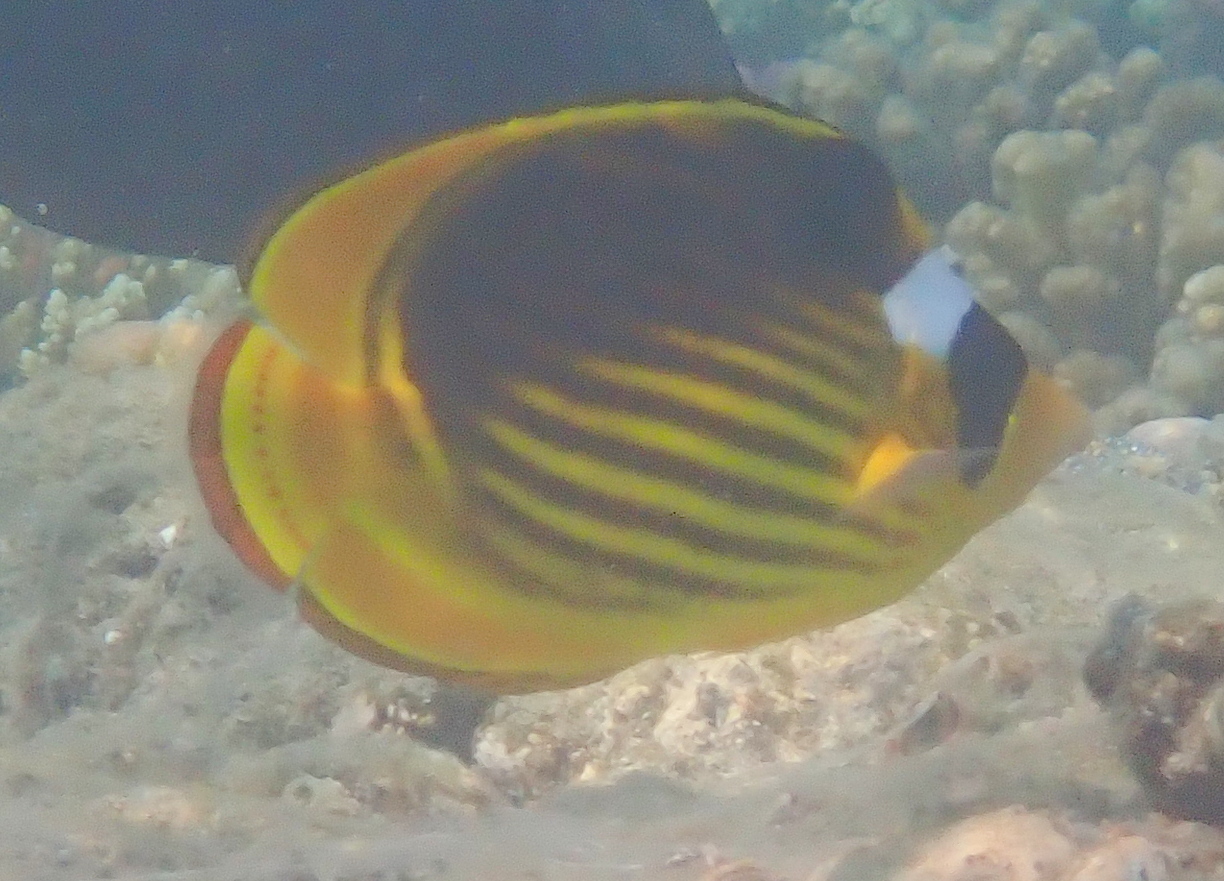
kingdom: Animalia
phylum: Chordata
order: Perciformes
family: Chaetodontidae
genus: Chaetodon
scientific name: Chaetodon fasciatus
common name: Diagonal butterflyfish
